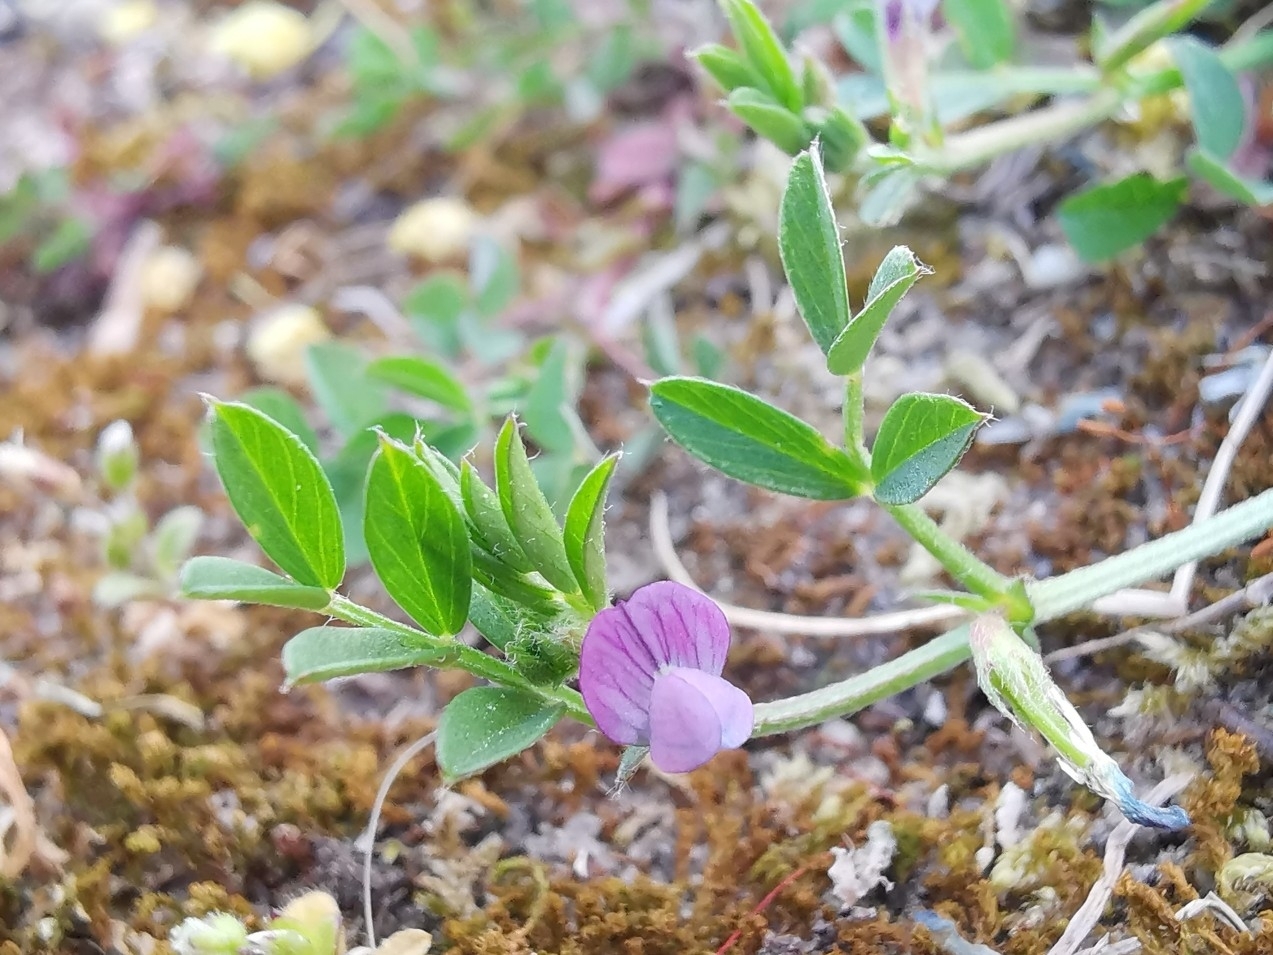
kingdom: Plantae
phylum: Tracheophyta
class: Magnoliopsida
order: Fabales
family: Fabaceae
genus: Vicia
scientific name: Vicia lathyroides
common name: Spring vetch
